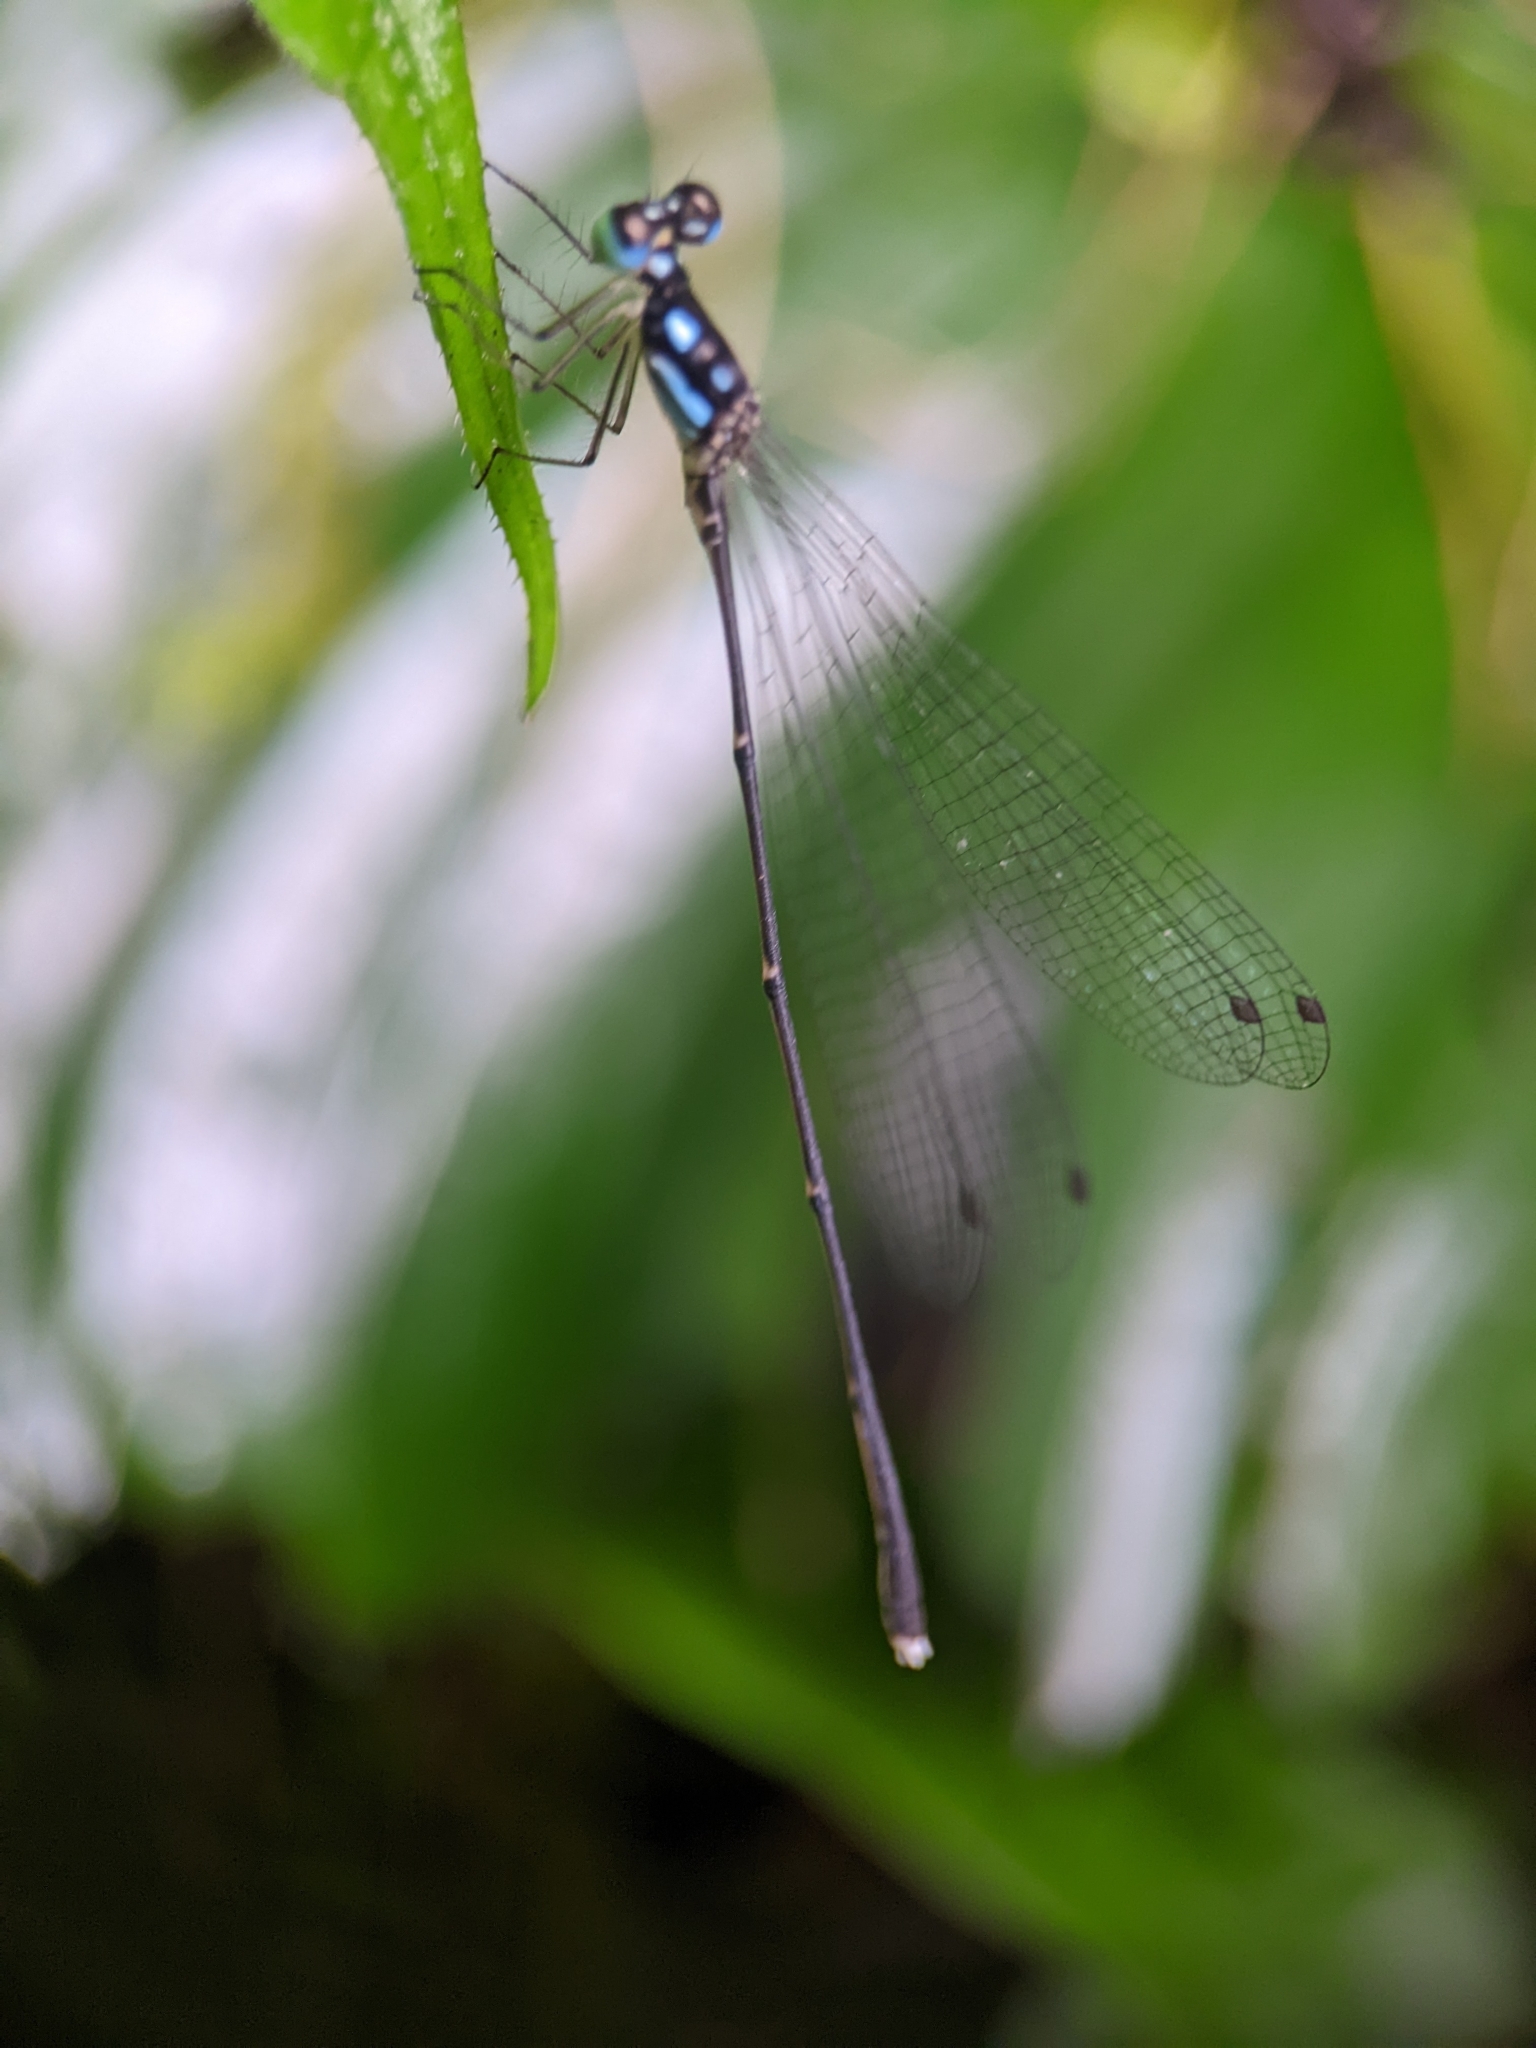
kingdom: Animalia
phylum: Arthropoda
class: Insecta
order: Odonata
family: Platycnemididae
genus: Coeliccia
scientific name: Coeliccia albicauda
